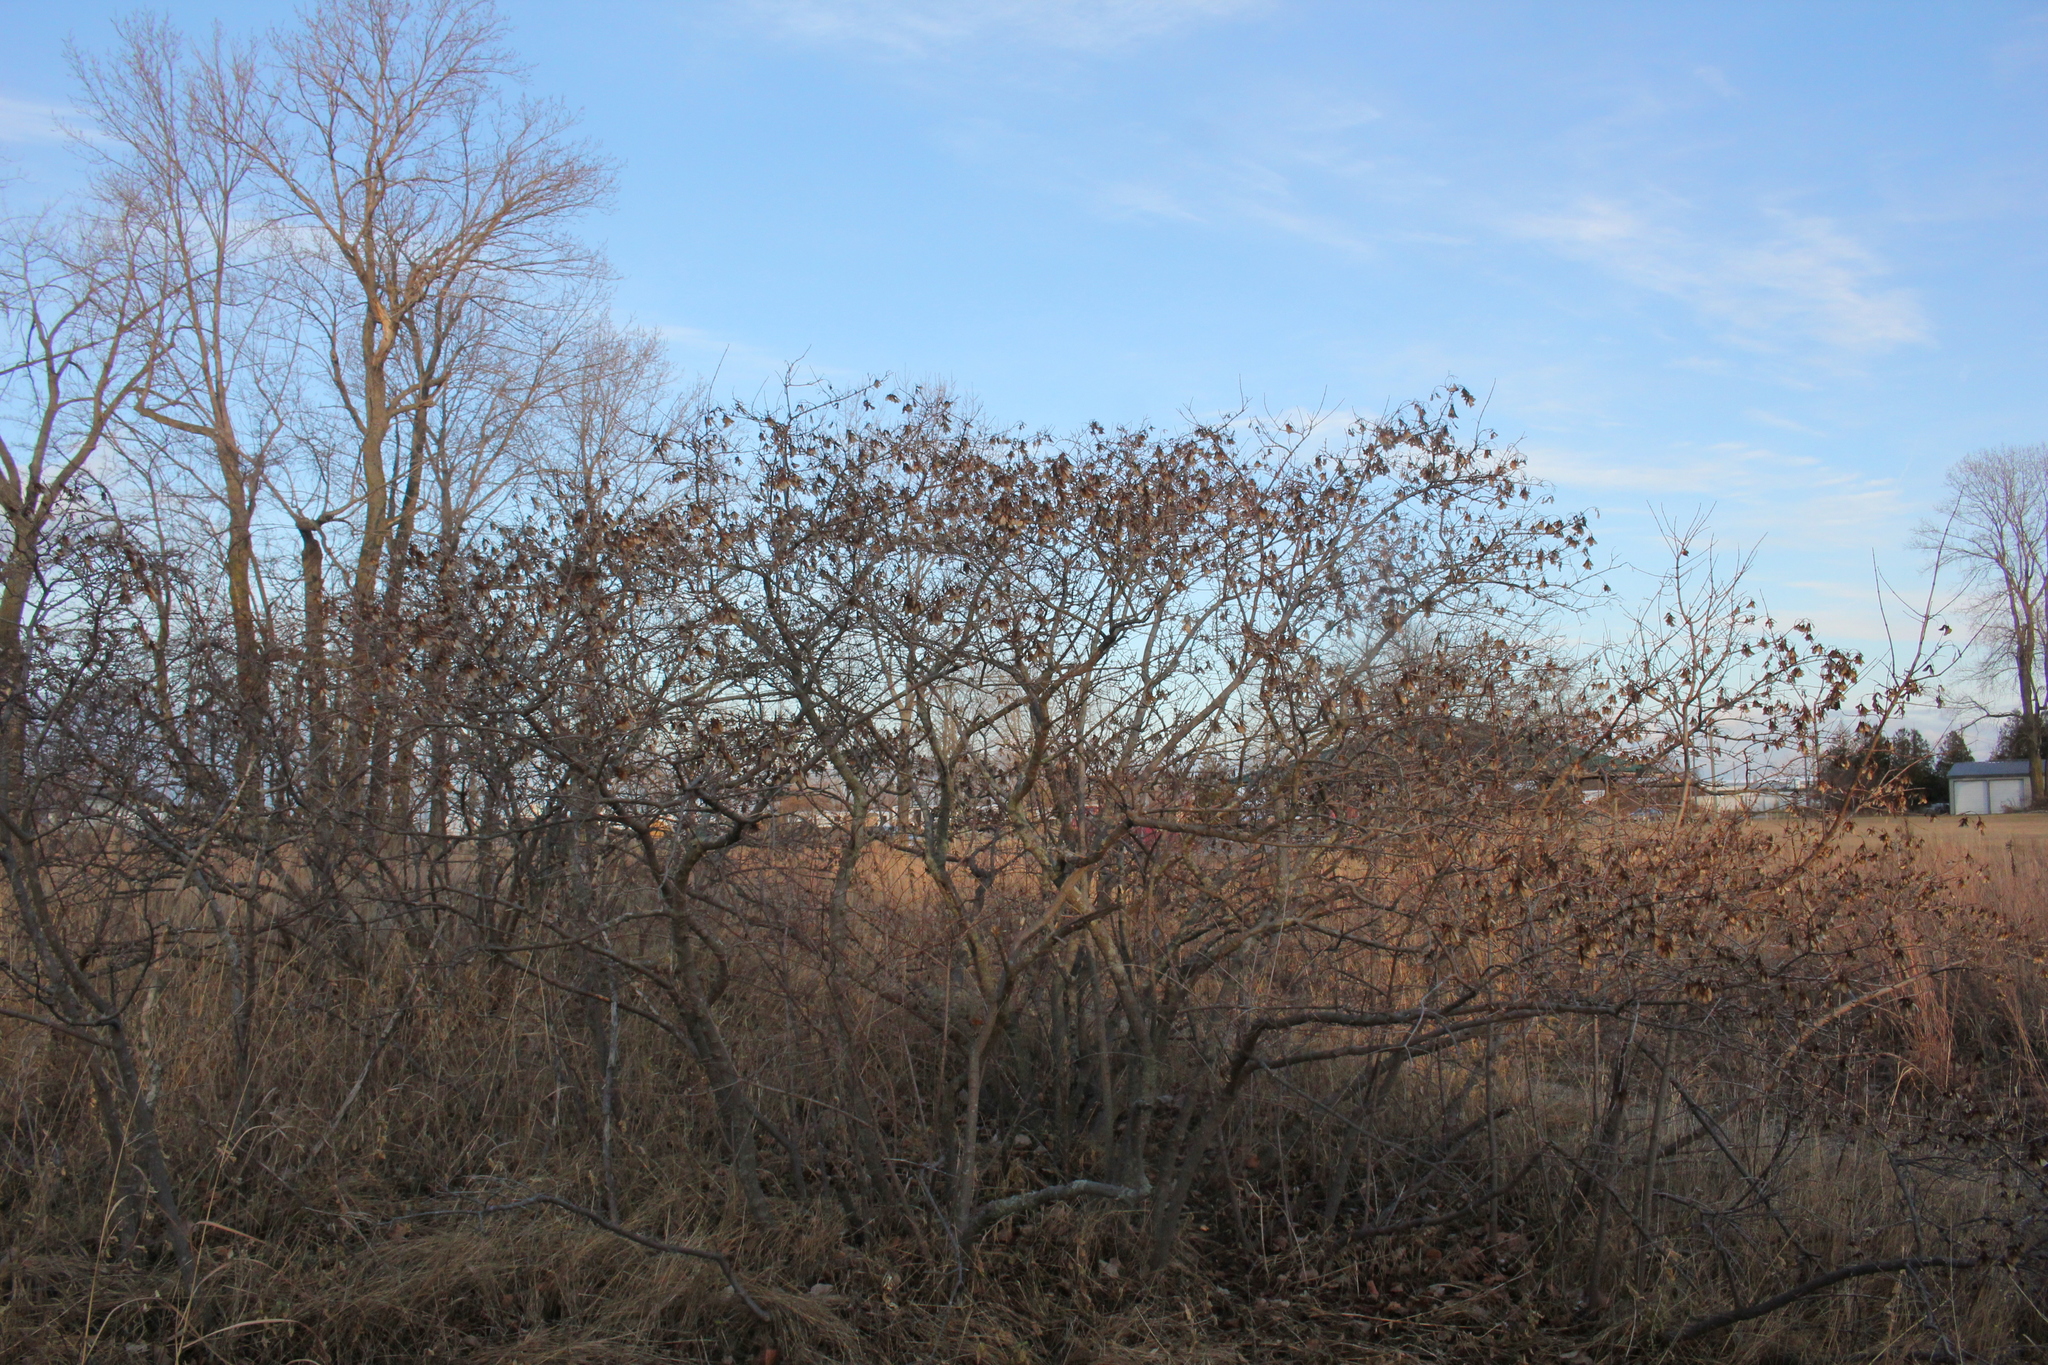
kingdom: Plantae
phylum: Tracheophyta
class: Magnoliopsida
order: Sapindales
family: Sapindaceae
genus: Acer
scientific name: Acer tataricum
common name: Tartar maple
